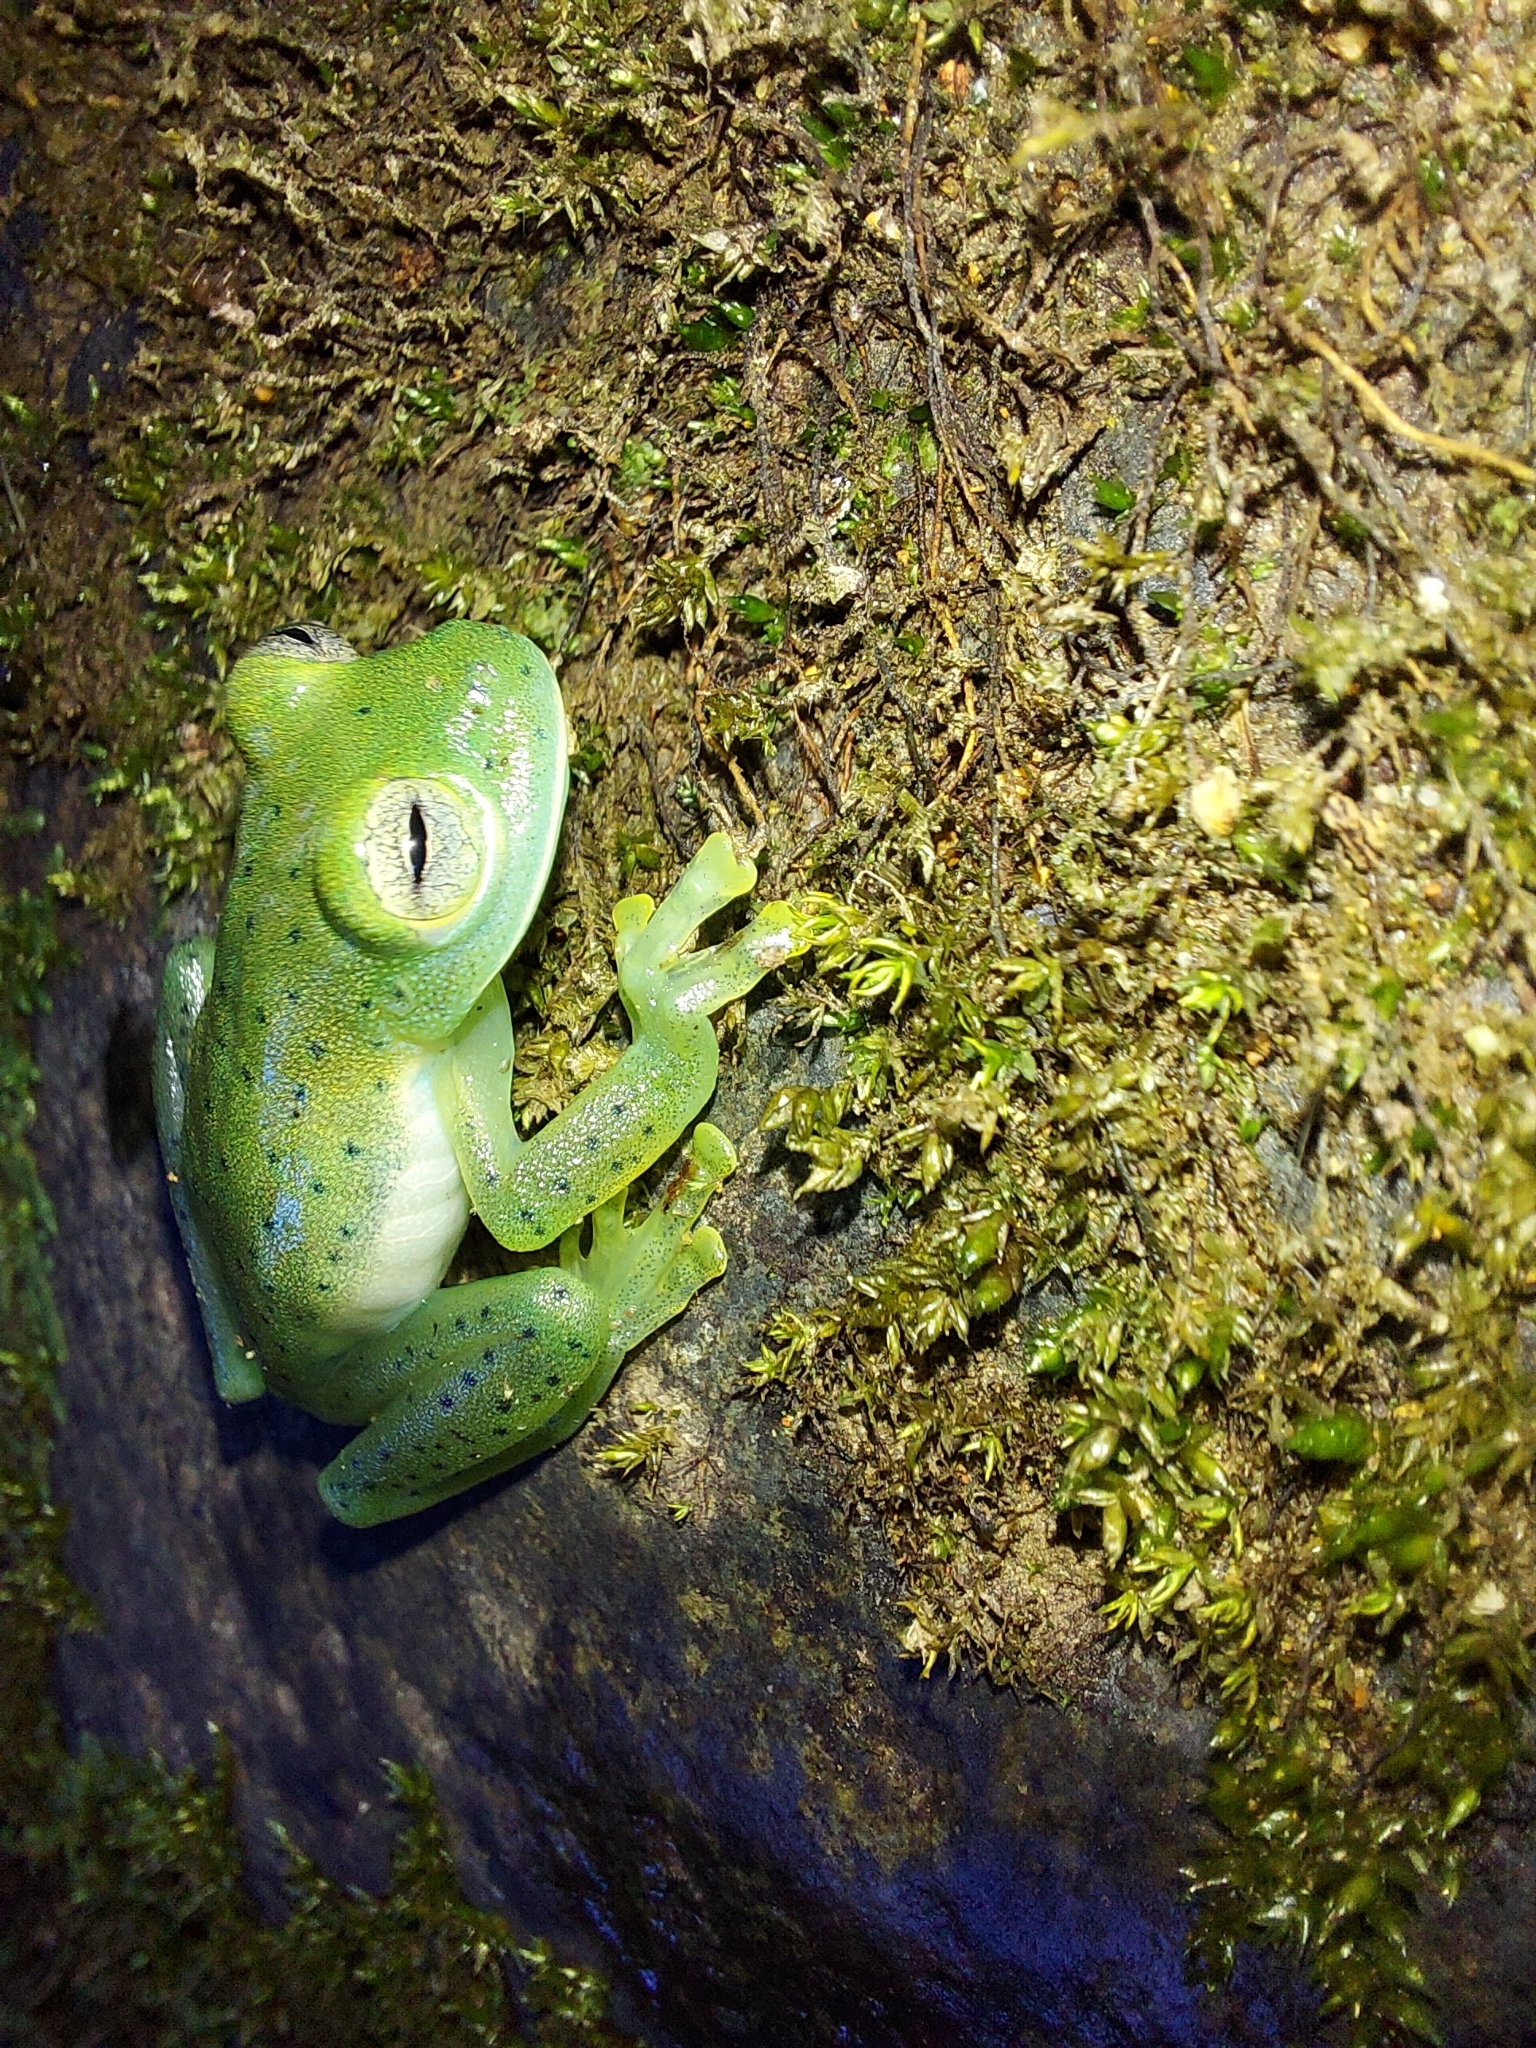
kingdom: Animalia
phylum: Chordata
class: Amphibia
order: Anura
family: Centrolenidae
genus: Espadarana
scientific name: Espadarana prosoblepon
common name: Rana de cristal variable
